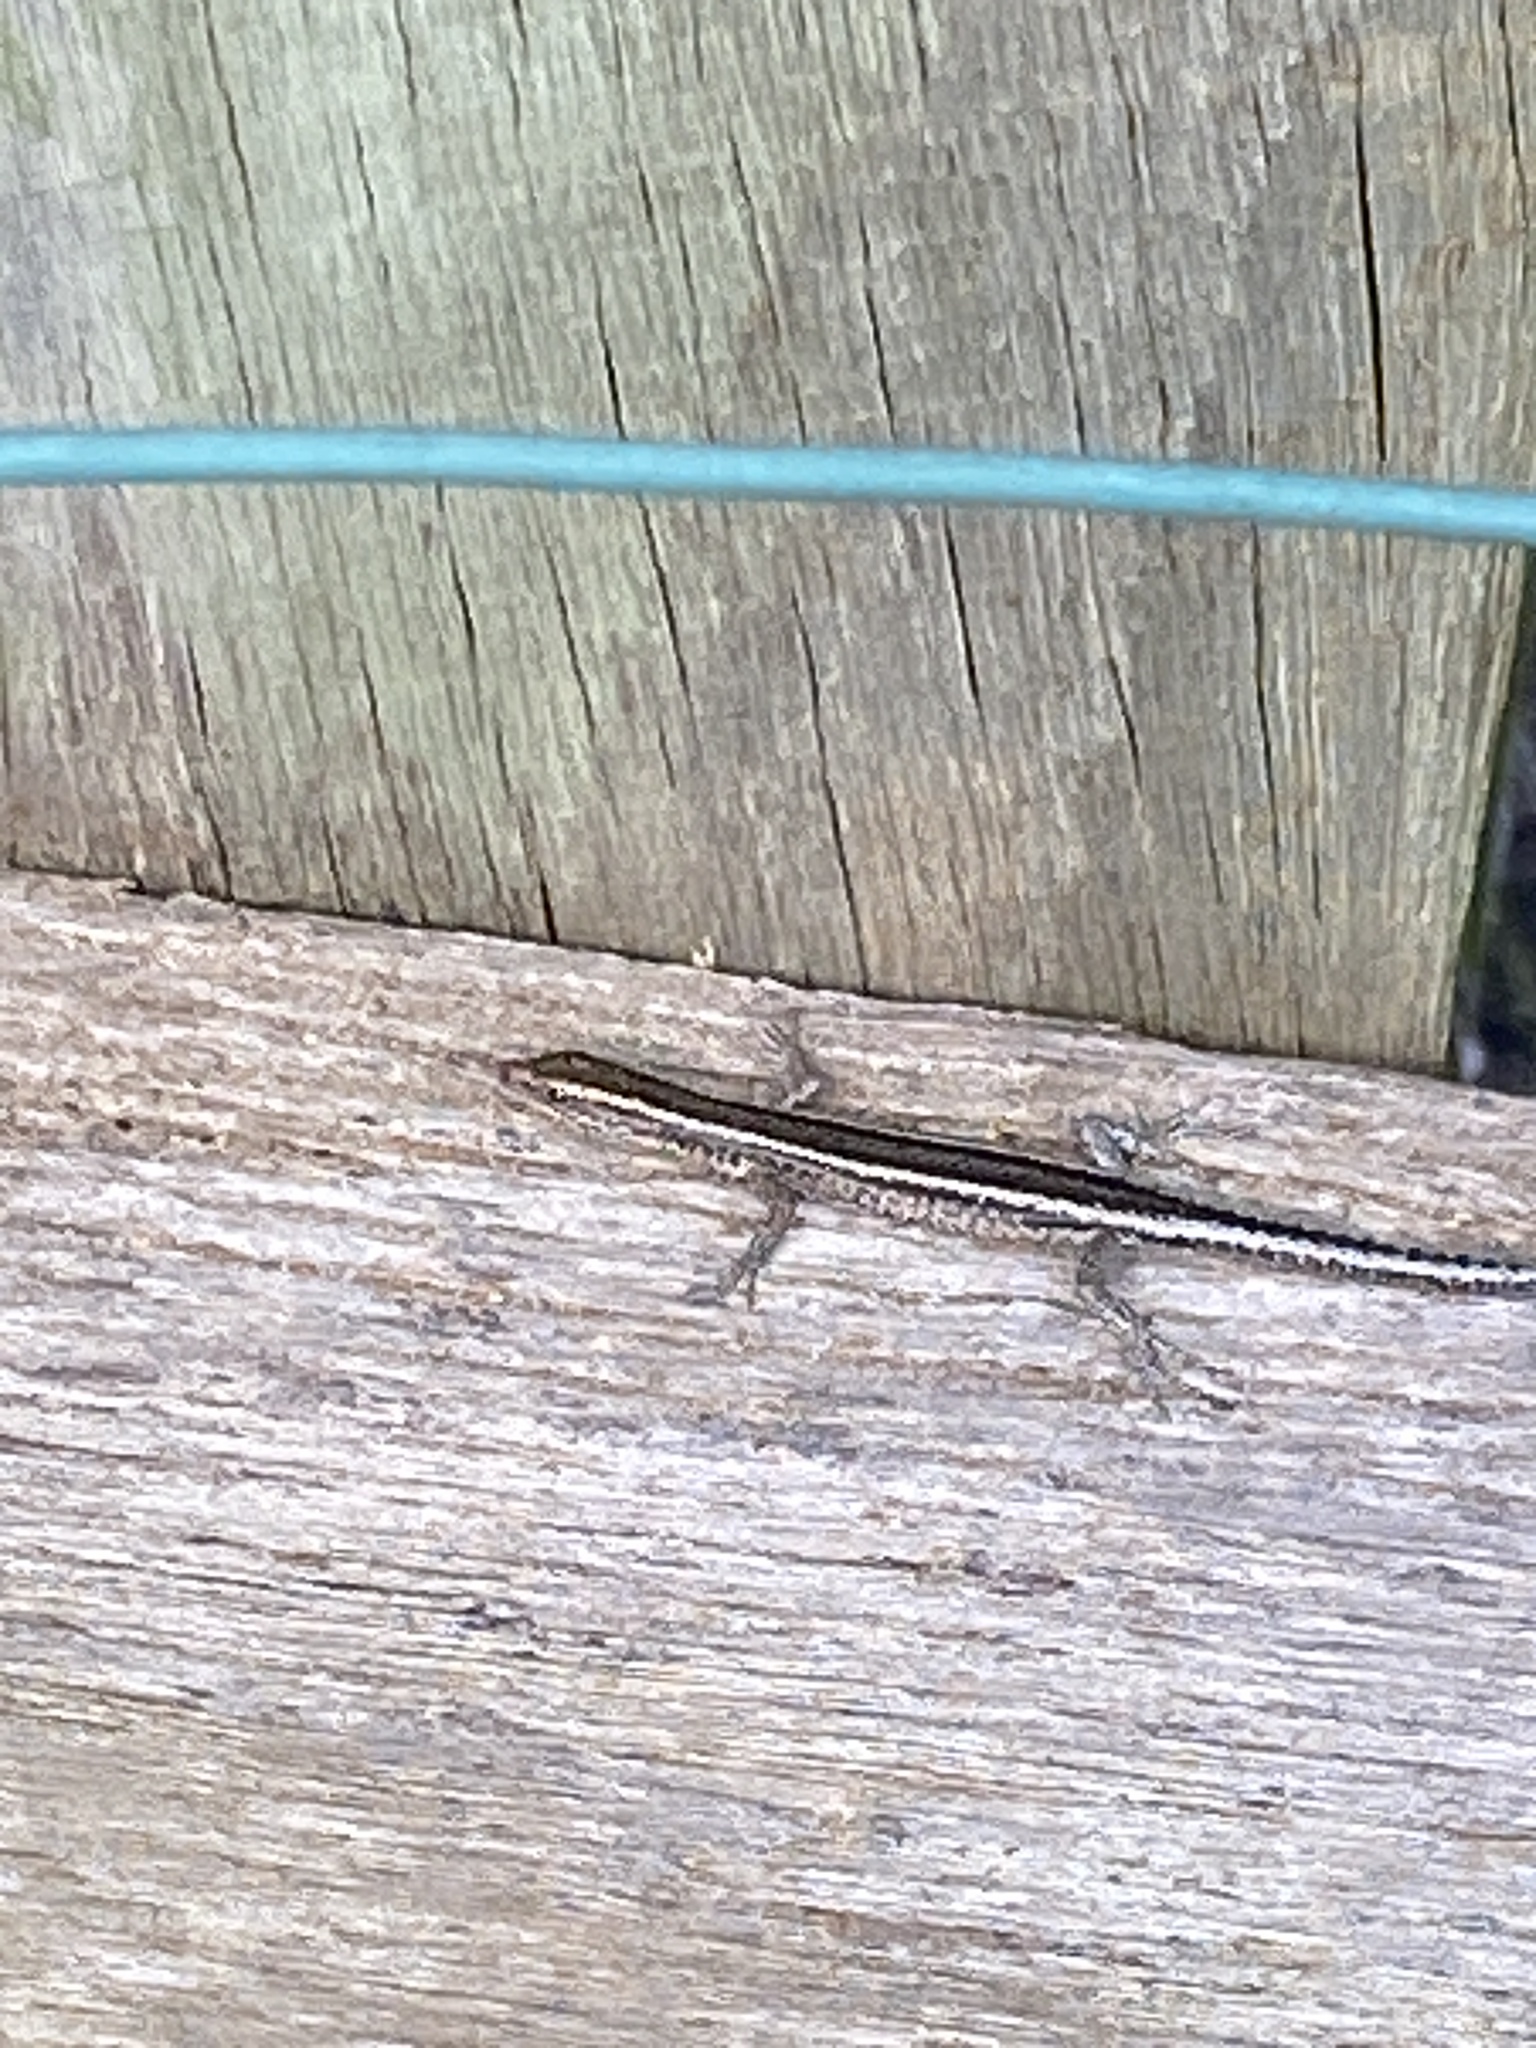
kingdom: Animalia
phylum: Chordata
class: Squamata
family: Scincidae
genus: Cryptoblepharus
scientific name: Cryptoblepharus pulcher
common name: Elegant snake-eyed skink
